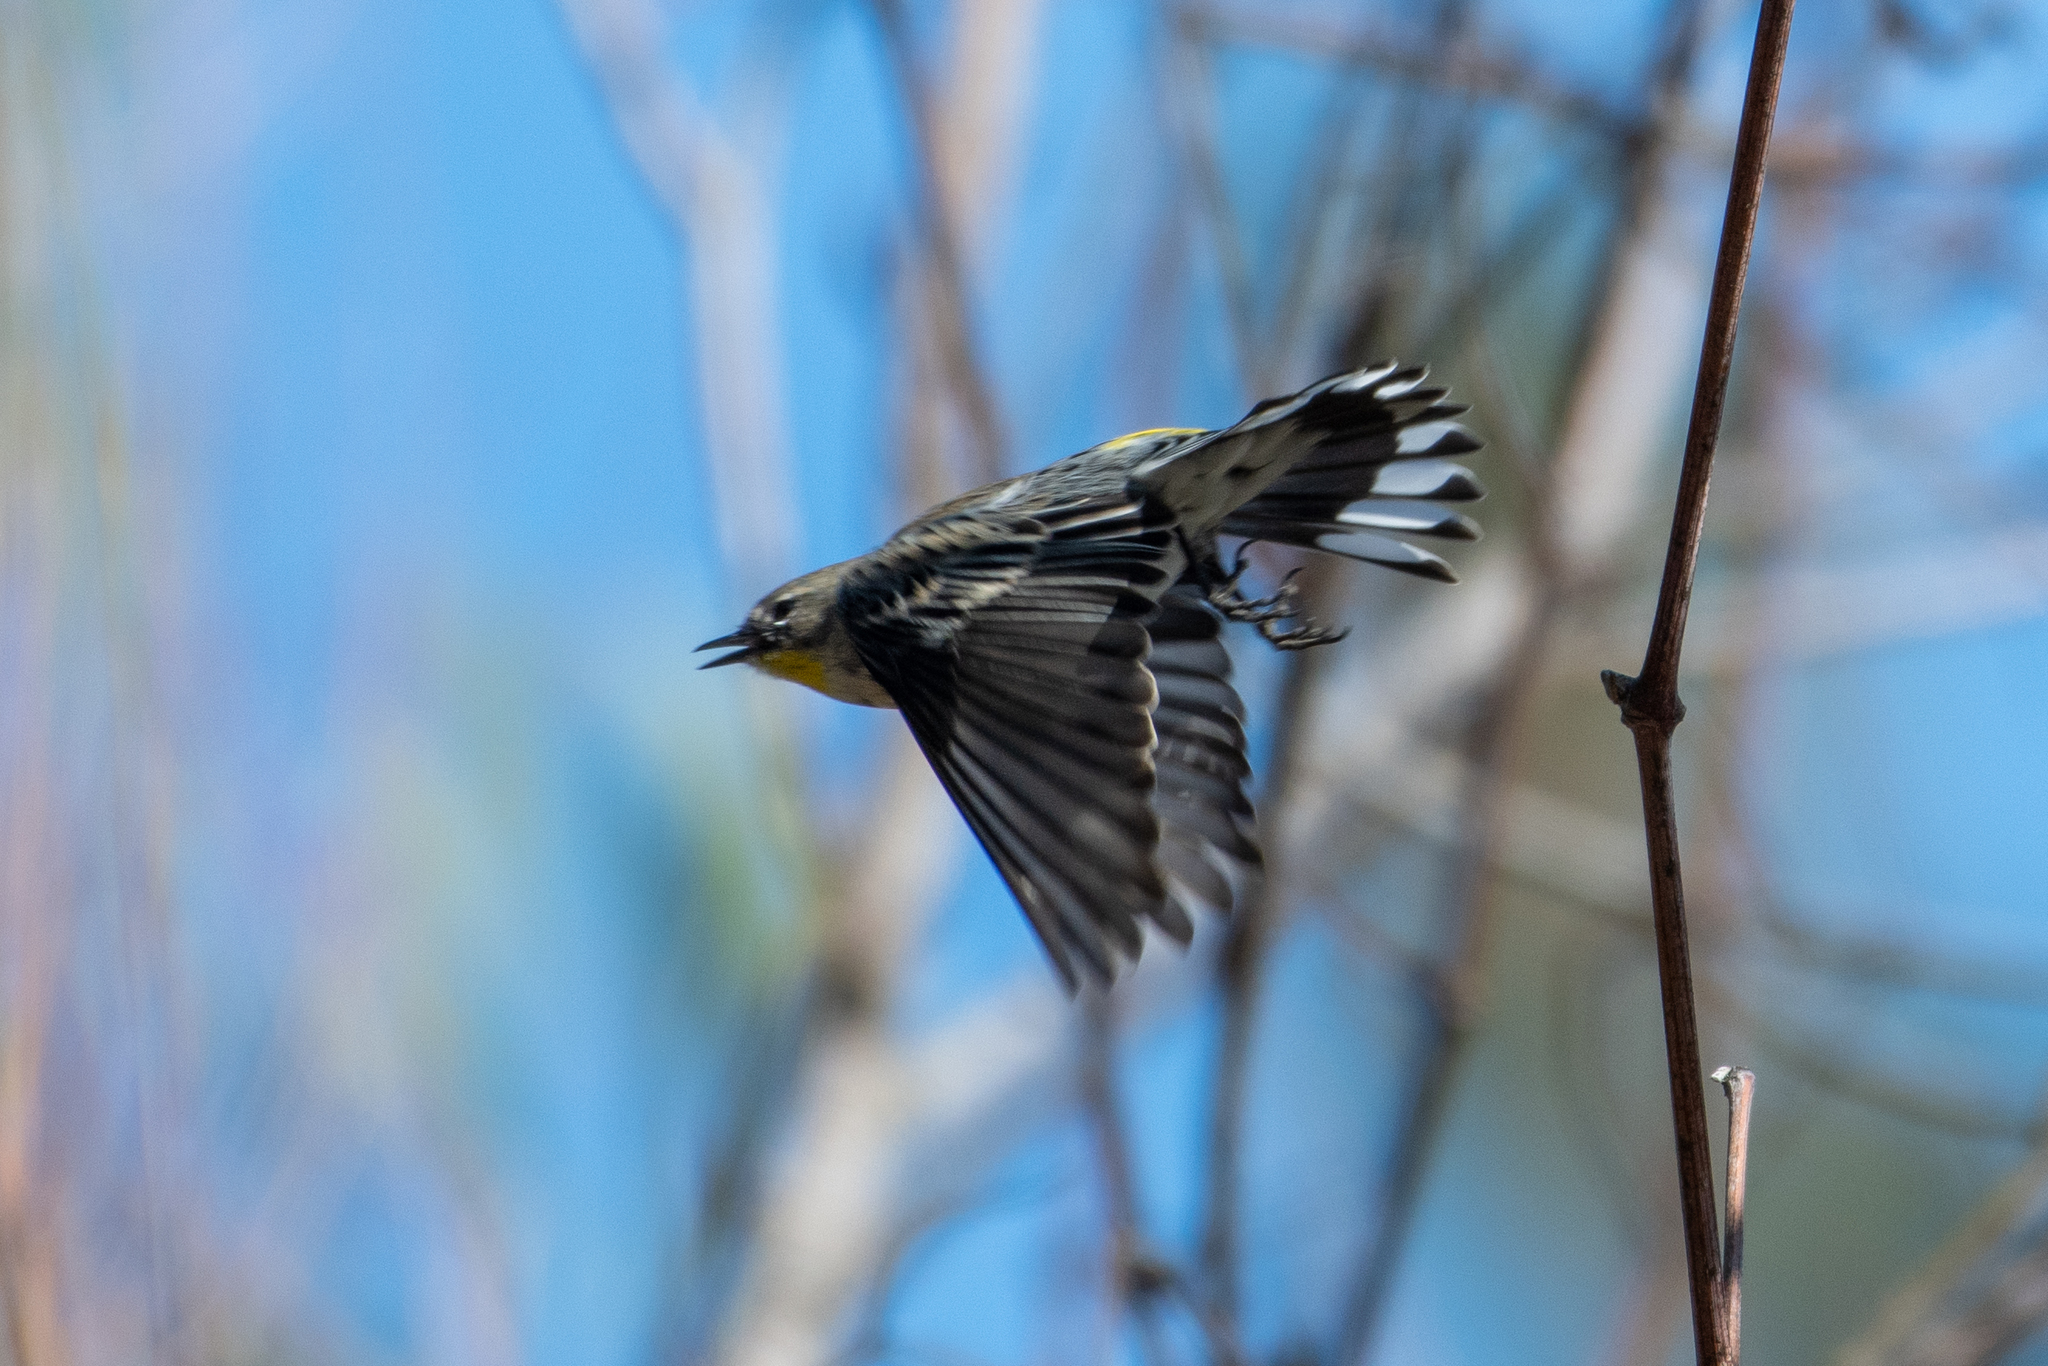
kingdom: Animalia
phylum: Chordata
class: Aves
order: Passeriformes
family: Parulidae
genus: Setophaga
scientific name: Setophaga coronata
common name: Myrtle warbler
